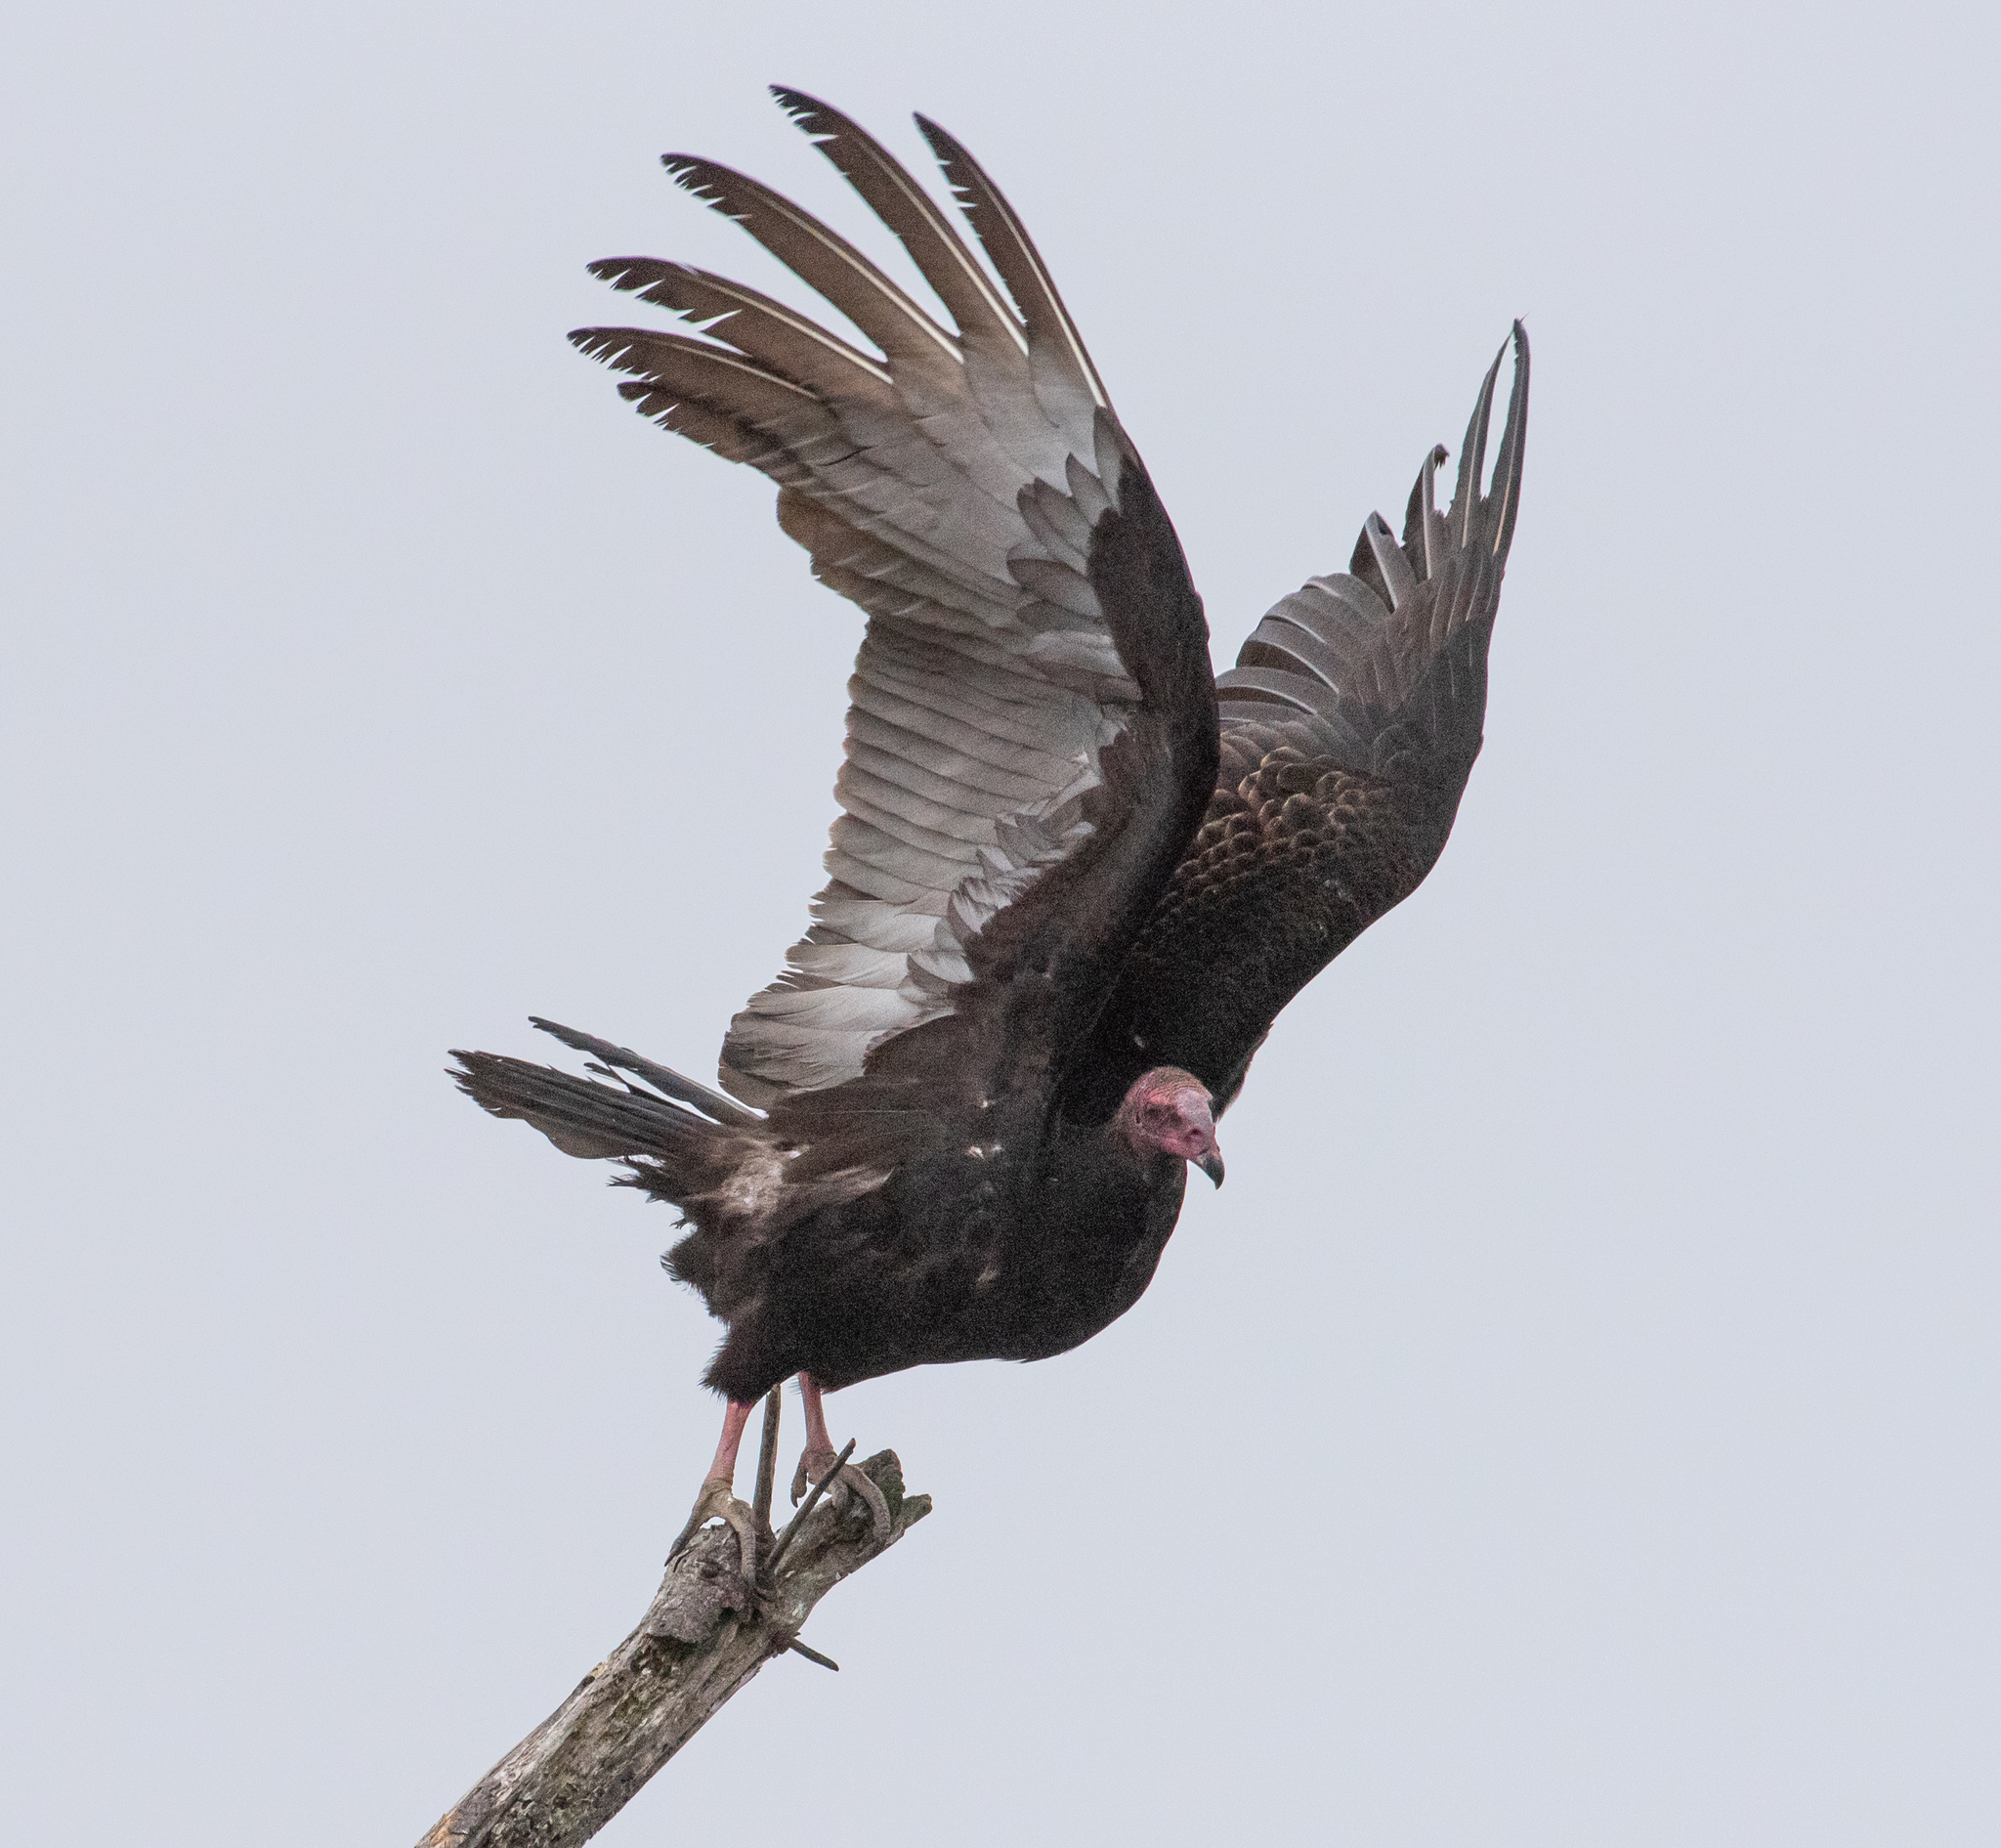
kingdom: Animalia
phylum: Chordata
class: Aves
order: Accipitriformes
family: Cathartidae
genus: Cathartes
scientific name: Cathartes aura
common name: Turkey vulture
